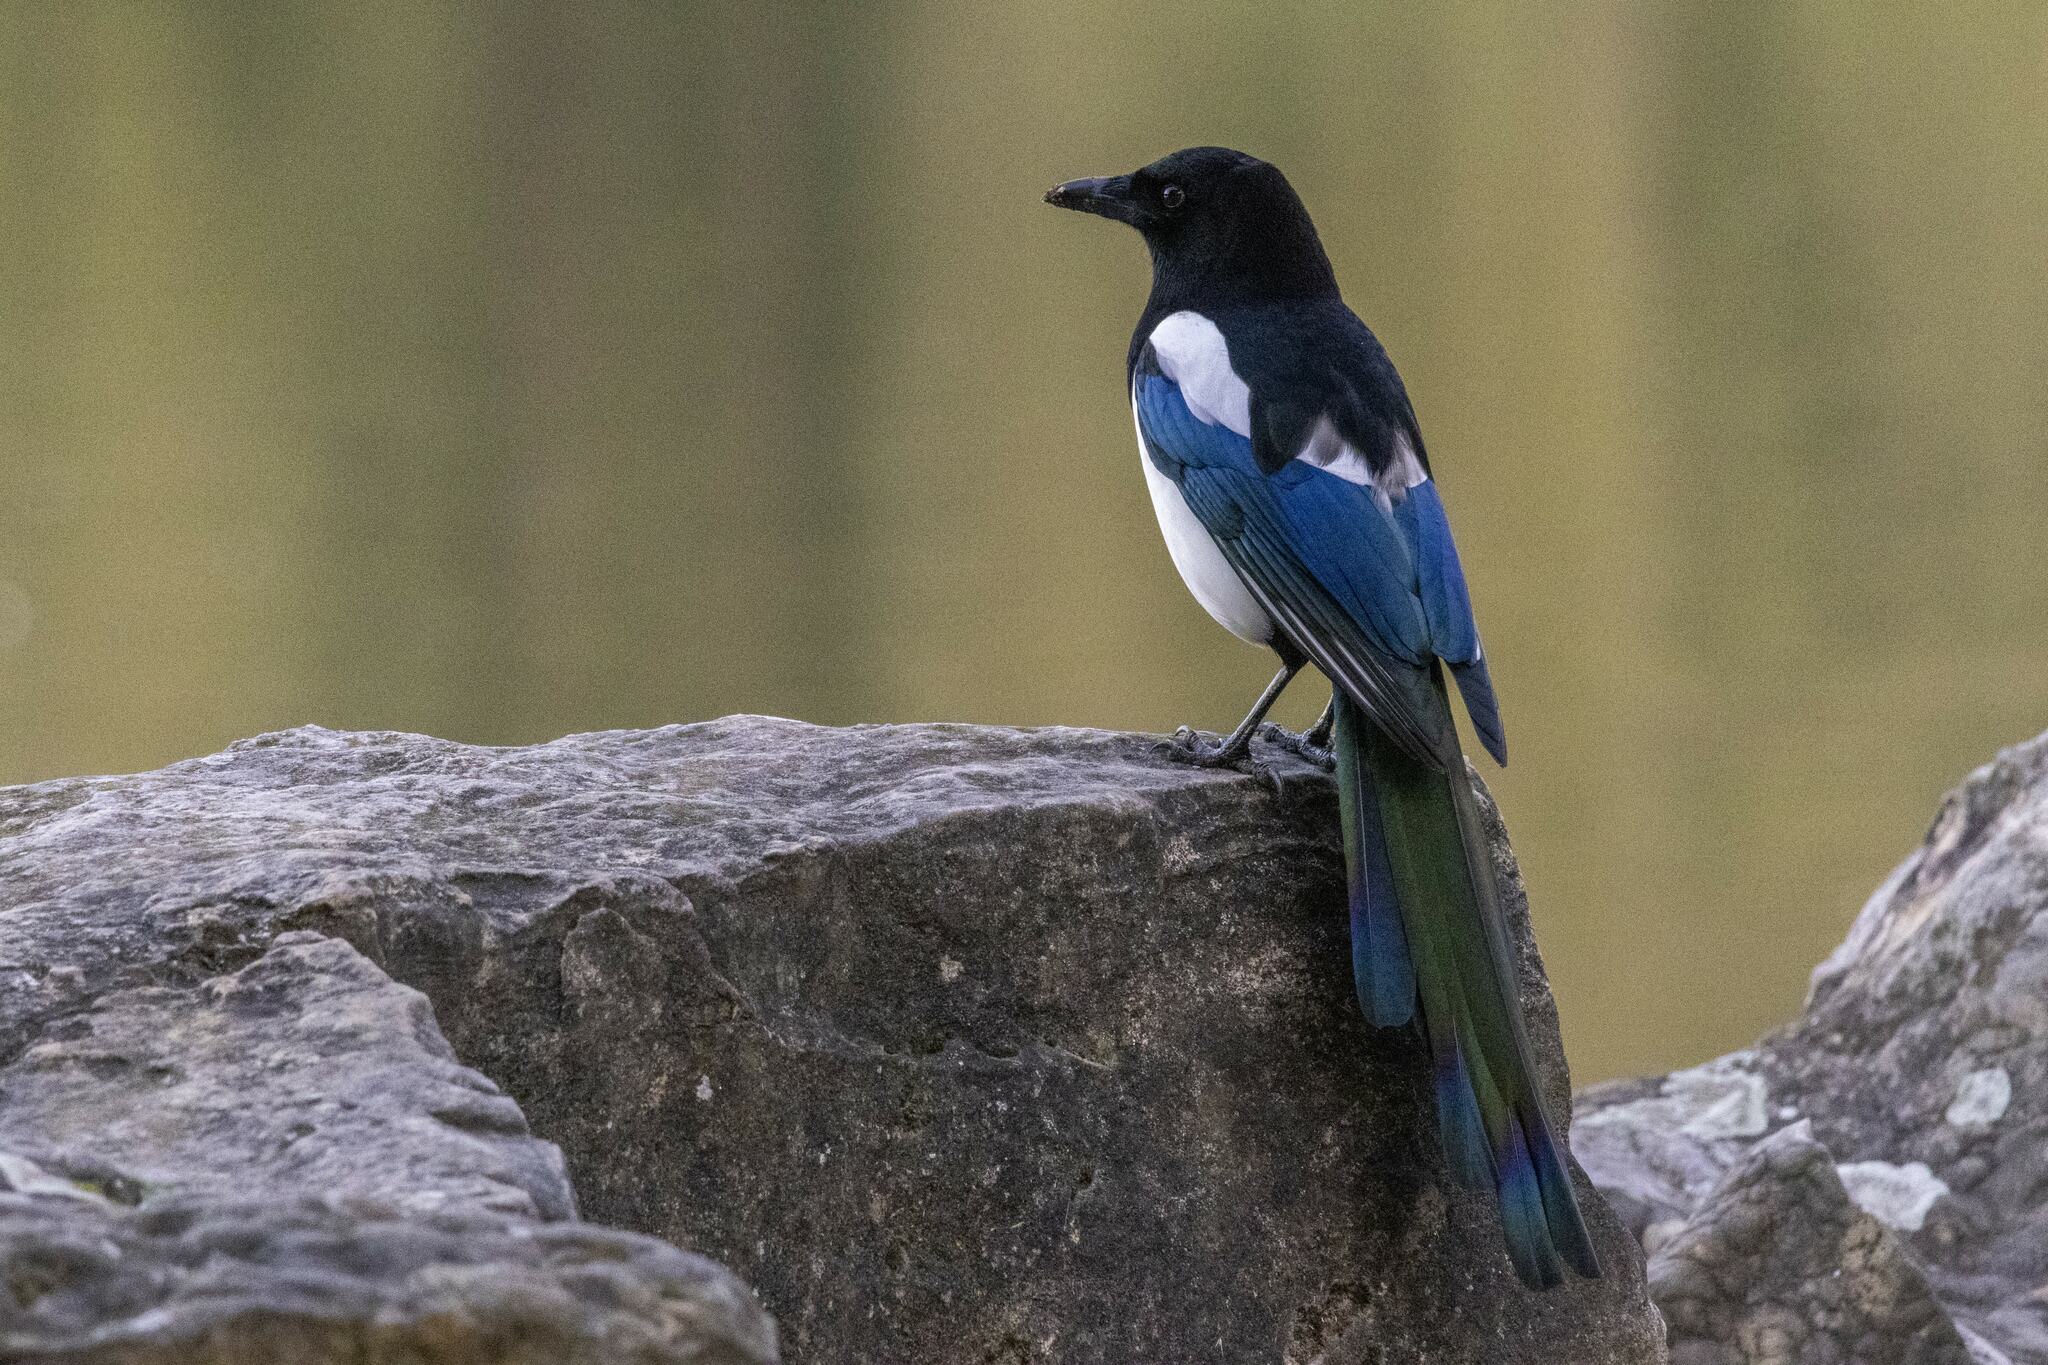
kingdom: Animalia
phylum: Chordata
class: Aves
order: Passeriformes
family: Corvidae
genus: Pica
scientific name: Pica pica
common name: Eurasian magpie
